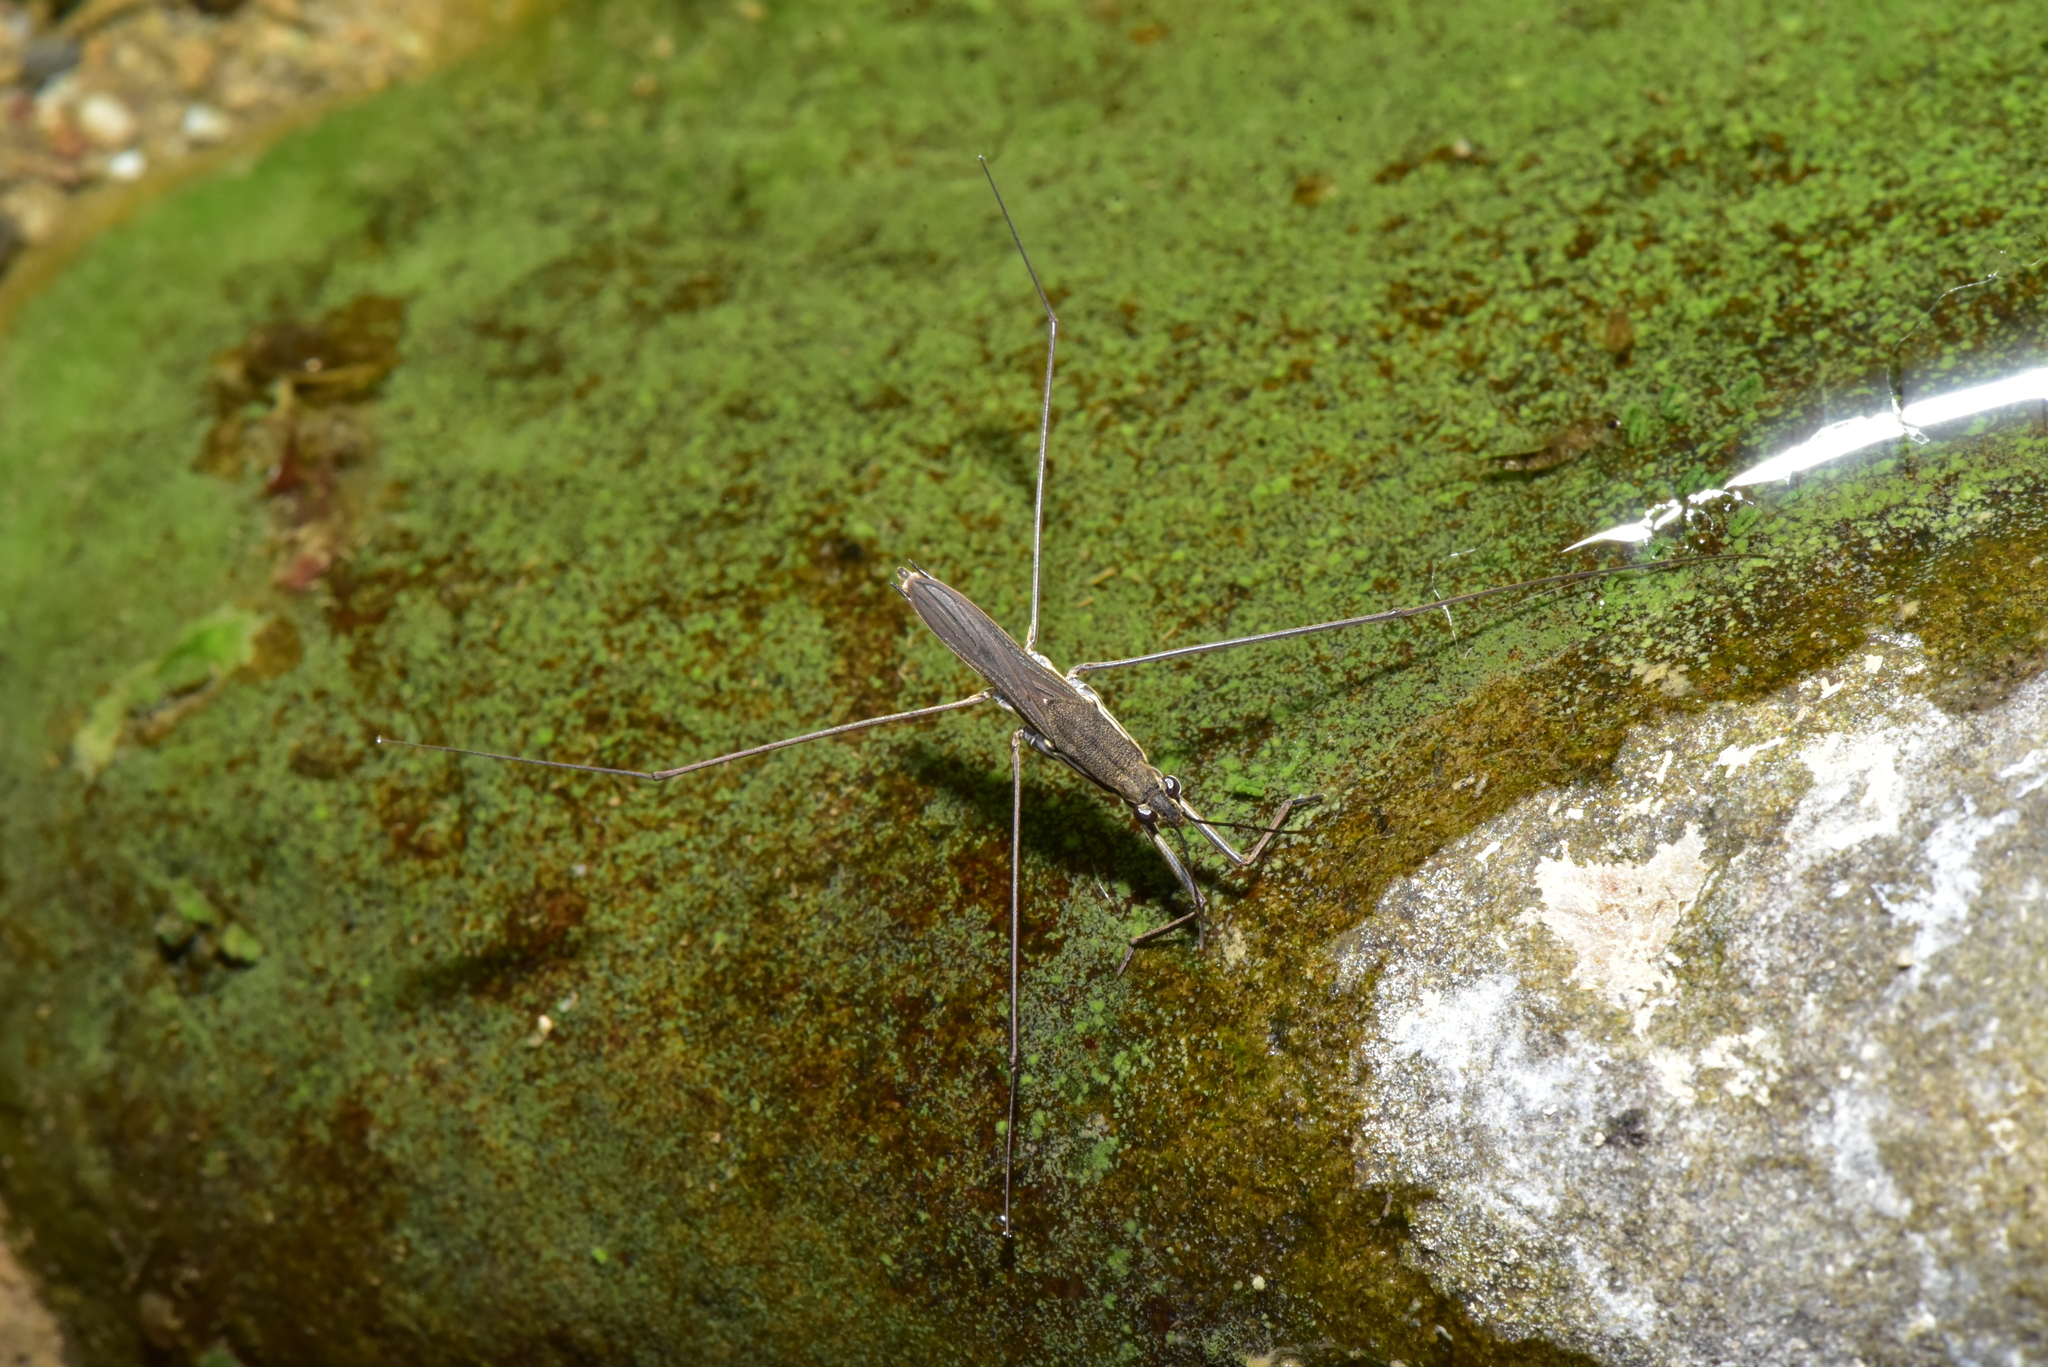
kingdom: Animalia
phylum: Arthropoda
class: Insecta
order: Hemiptera
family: Gerridae
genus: Aquarius
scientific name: Aquarius paludum
